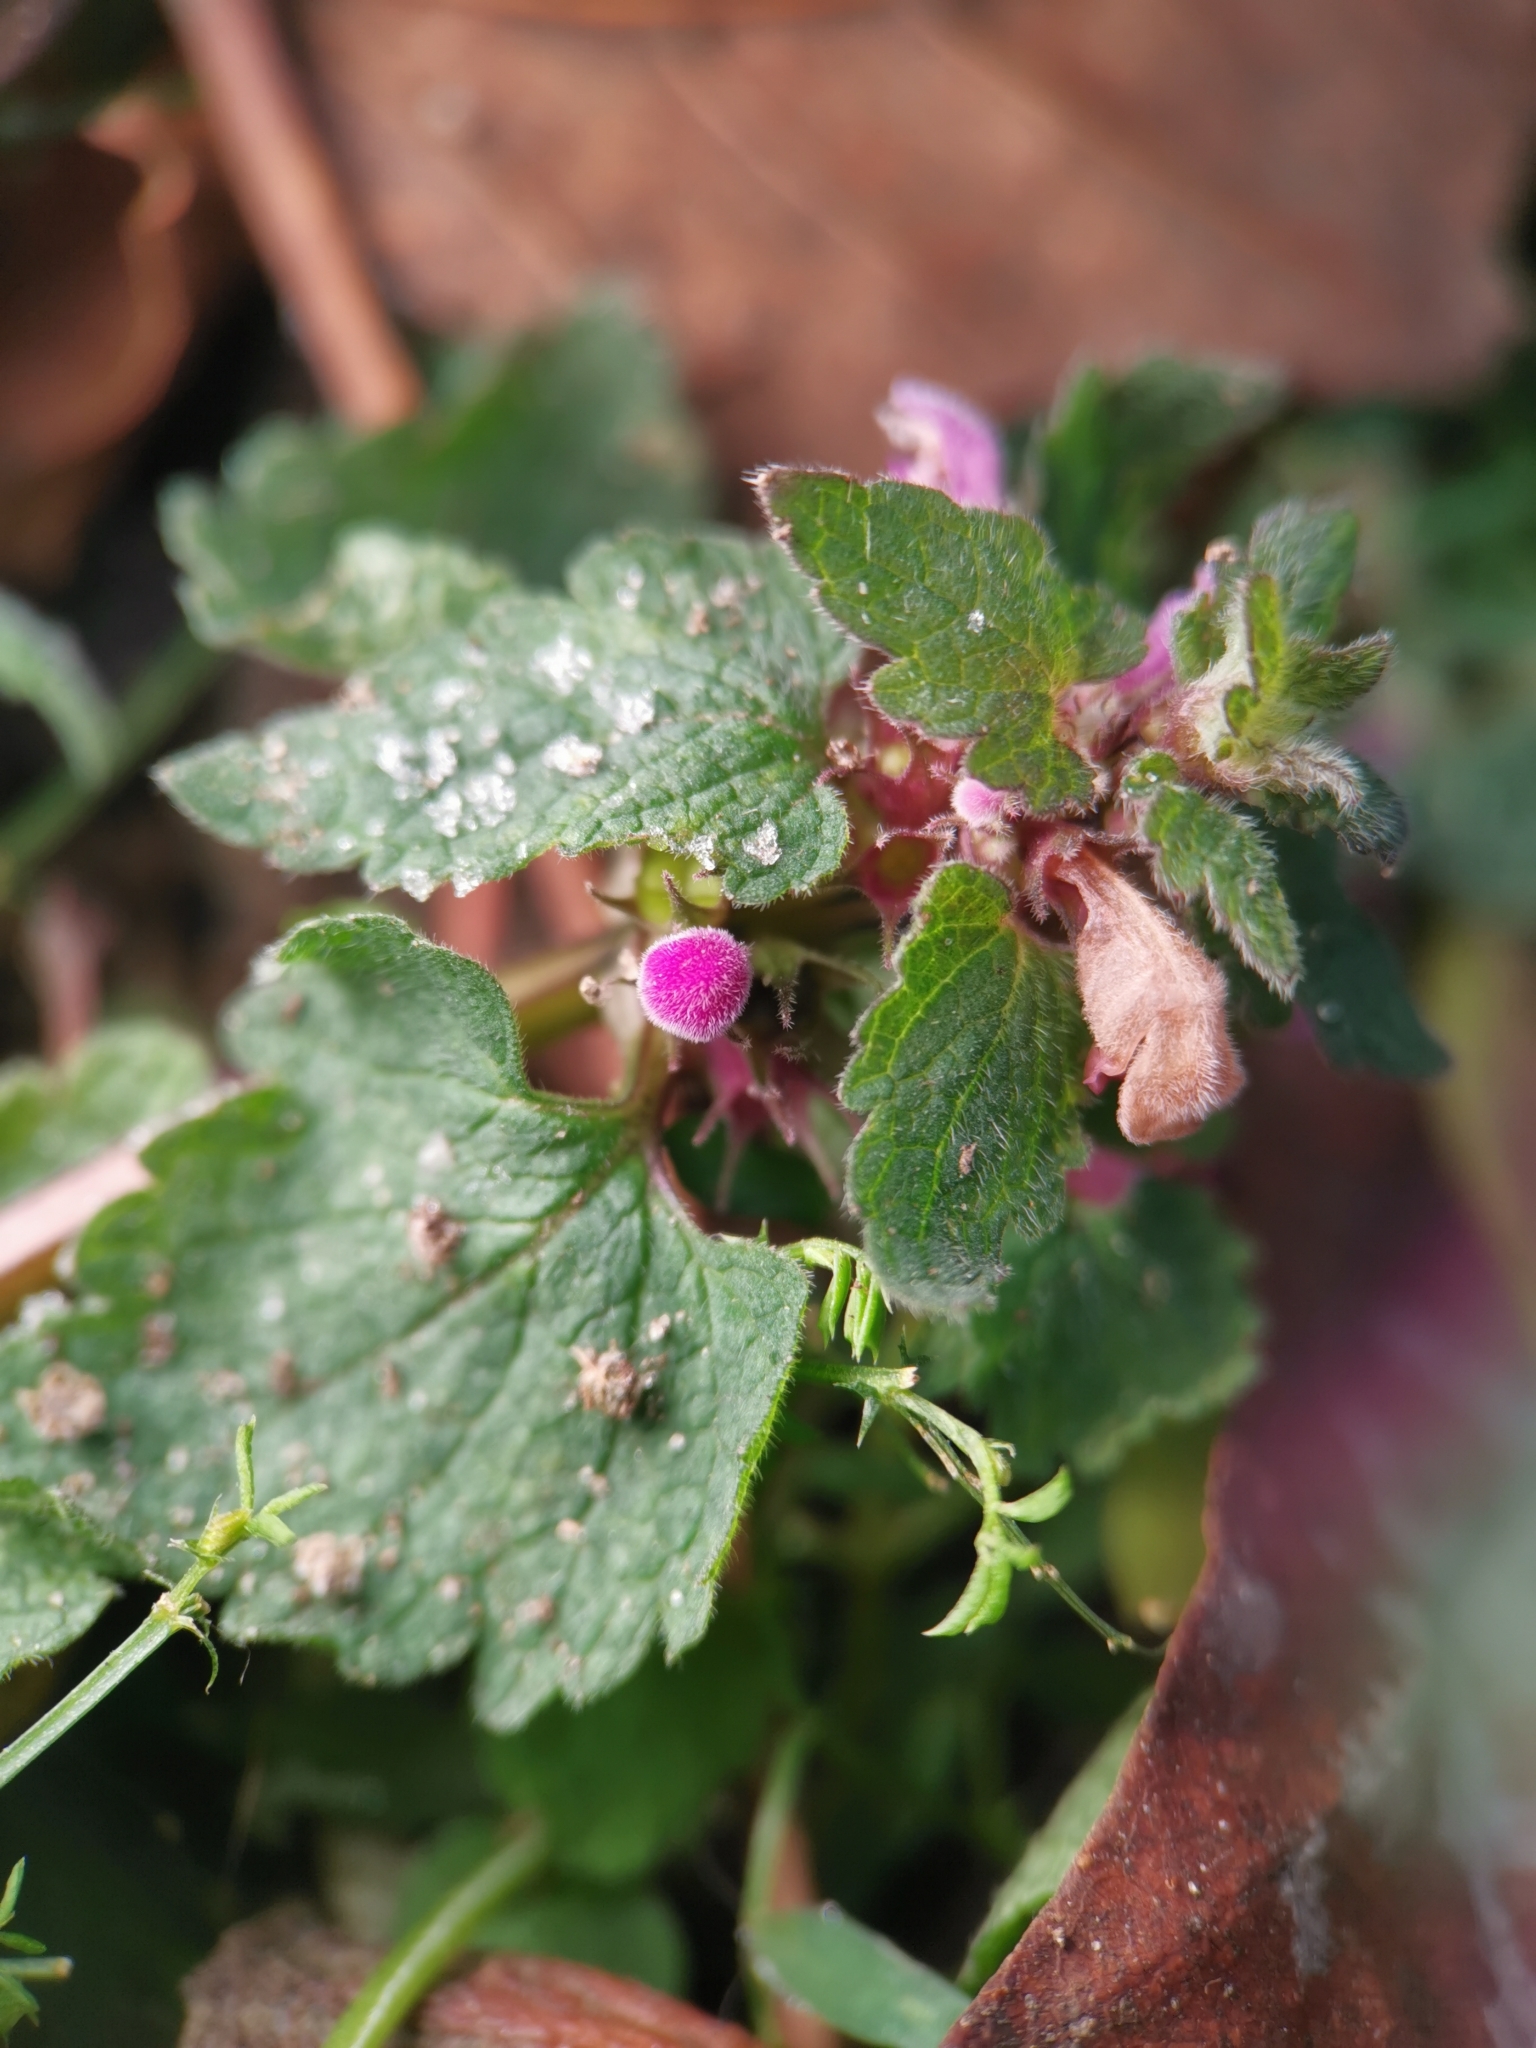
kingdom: Plantae
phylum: Tracheophyta
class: Magnoliopsida
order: Lamiales
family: Lamiaceae
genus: Lamium
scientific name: Lamium purpureum
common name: Red dead-nettle
